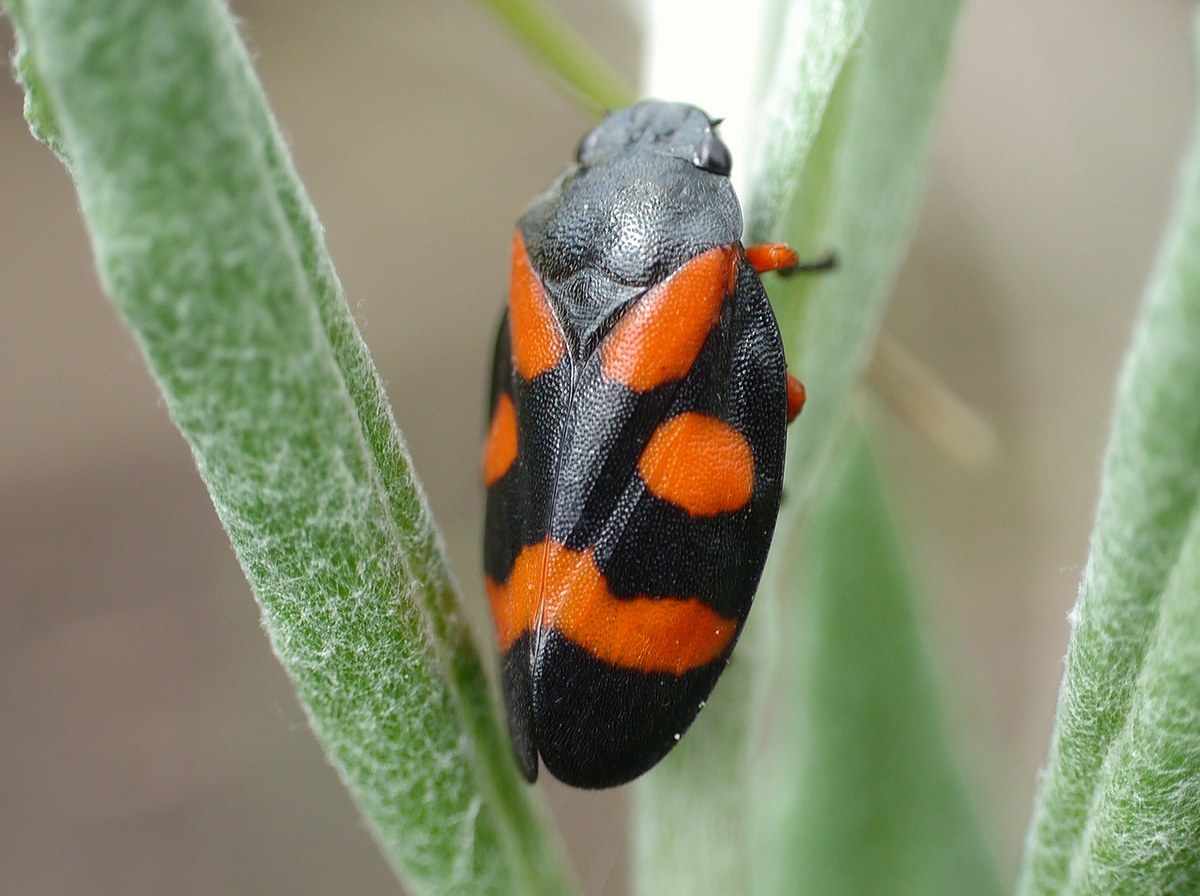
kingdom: Animalia
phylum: Arthropoda
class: Insecta
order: Hemiptera
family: Cercopidae
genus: Cercopis
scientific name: Cercopis intermedia
